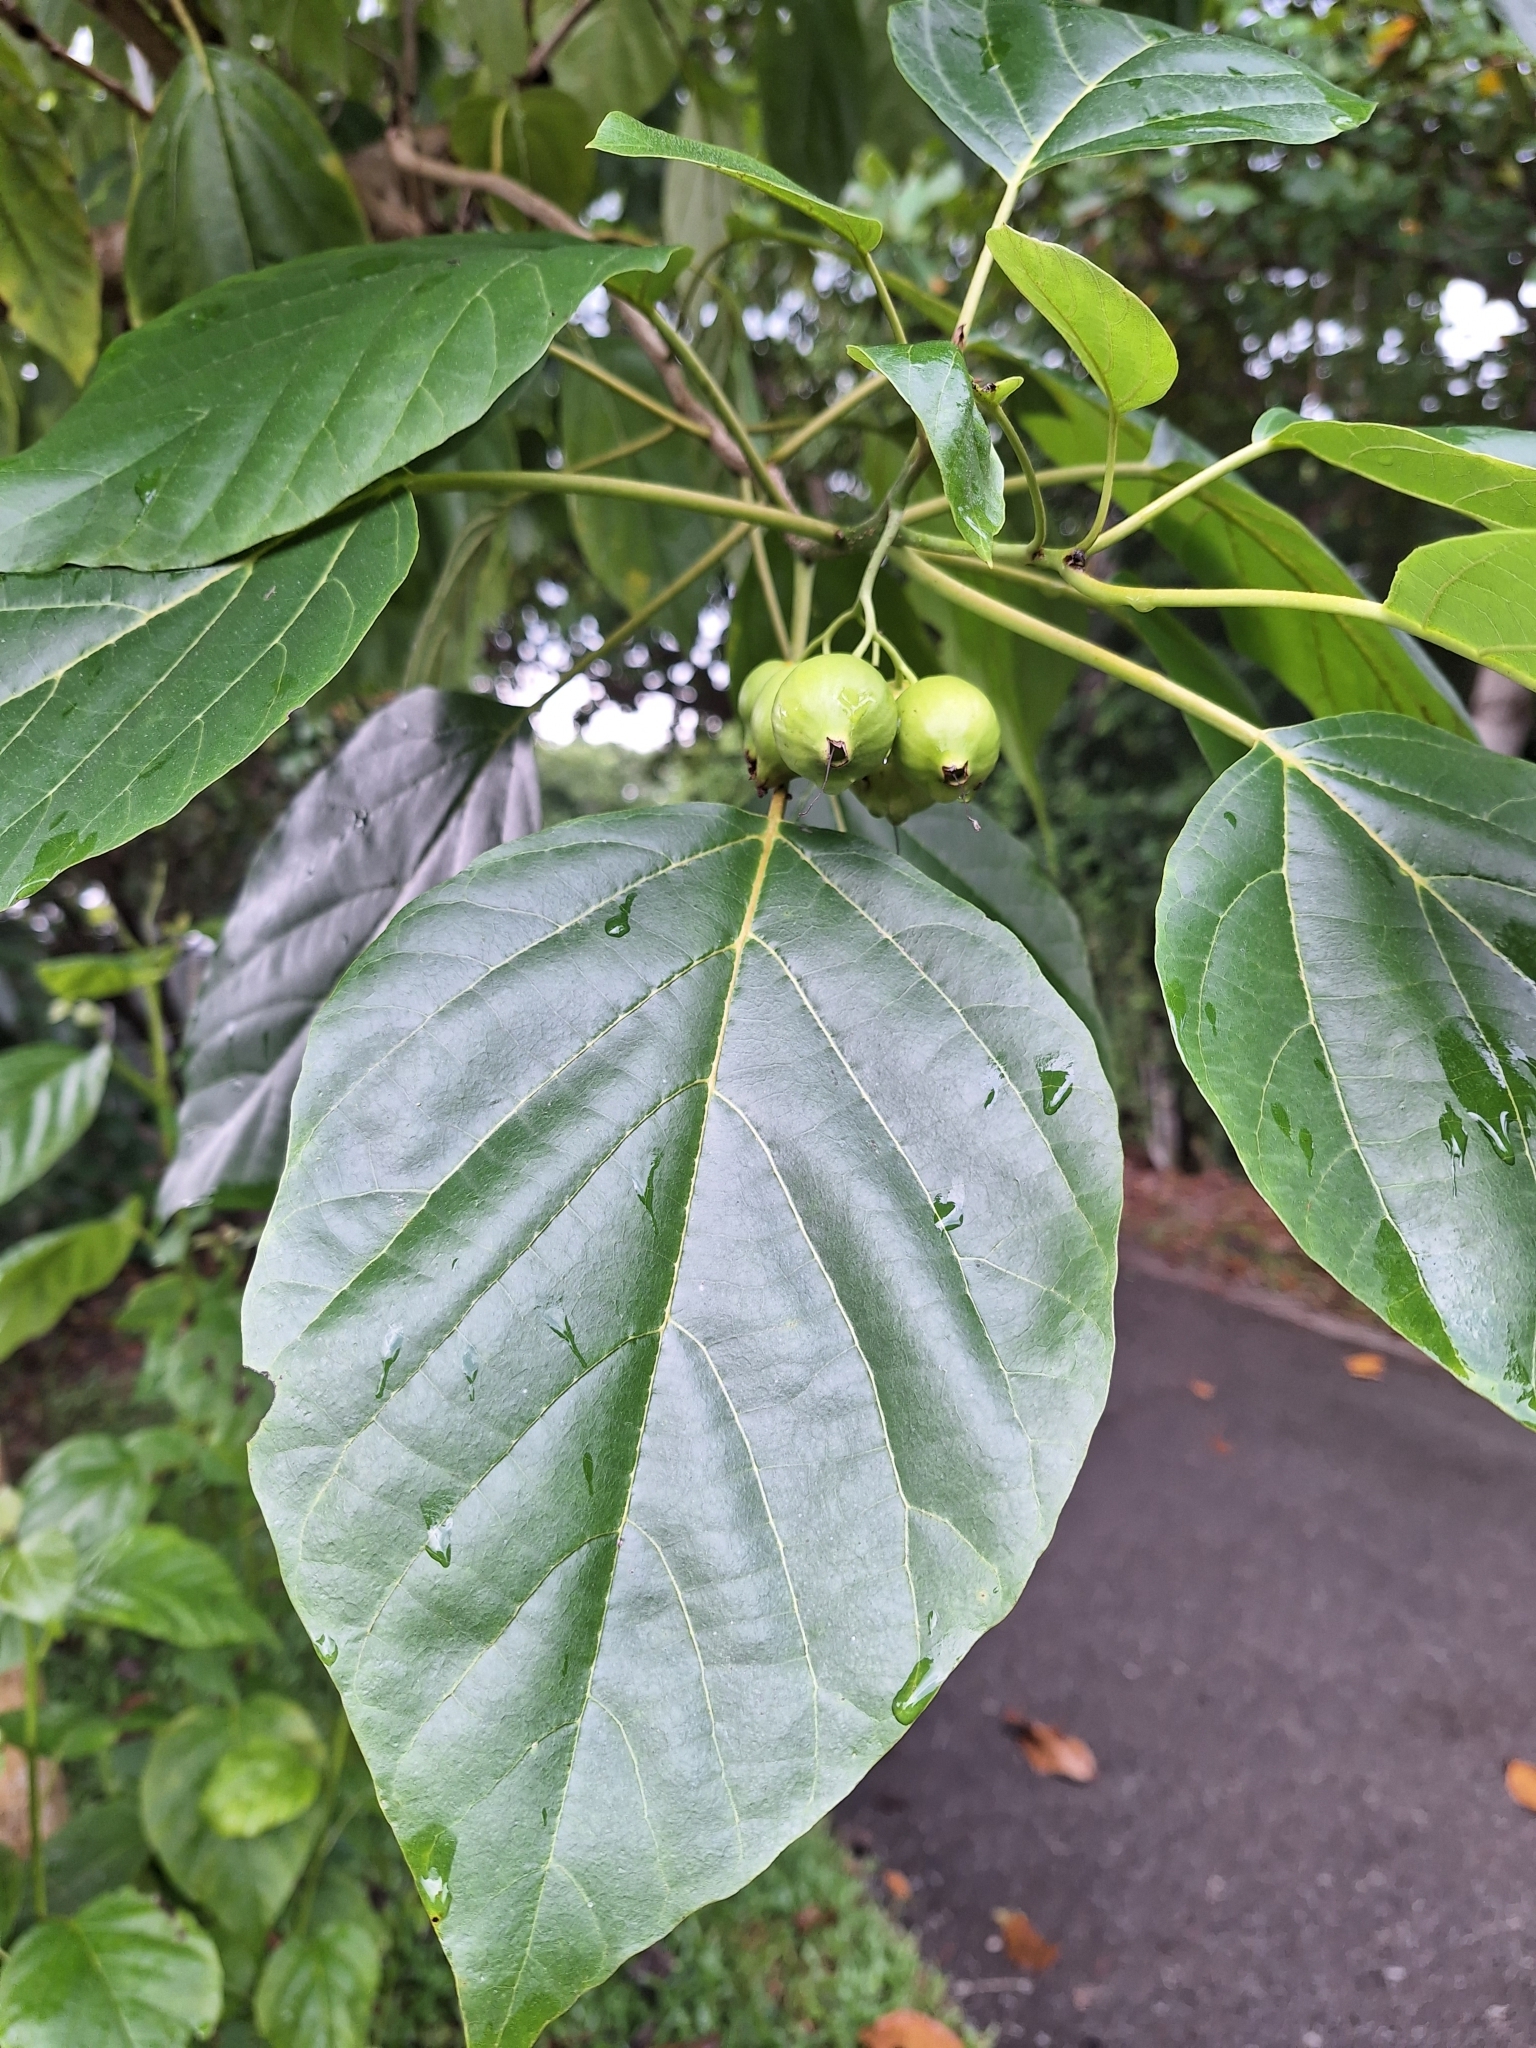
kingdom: Plantae
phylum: Tracheophyta
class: Magnoliopsida
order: Boraginales
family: Cordiaceae
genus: Cordia
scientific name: Cordia subcordata
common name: Mareer
